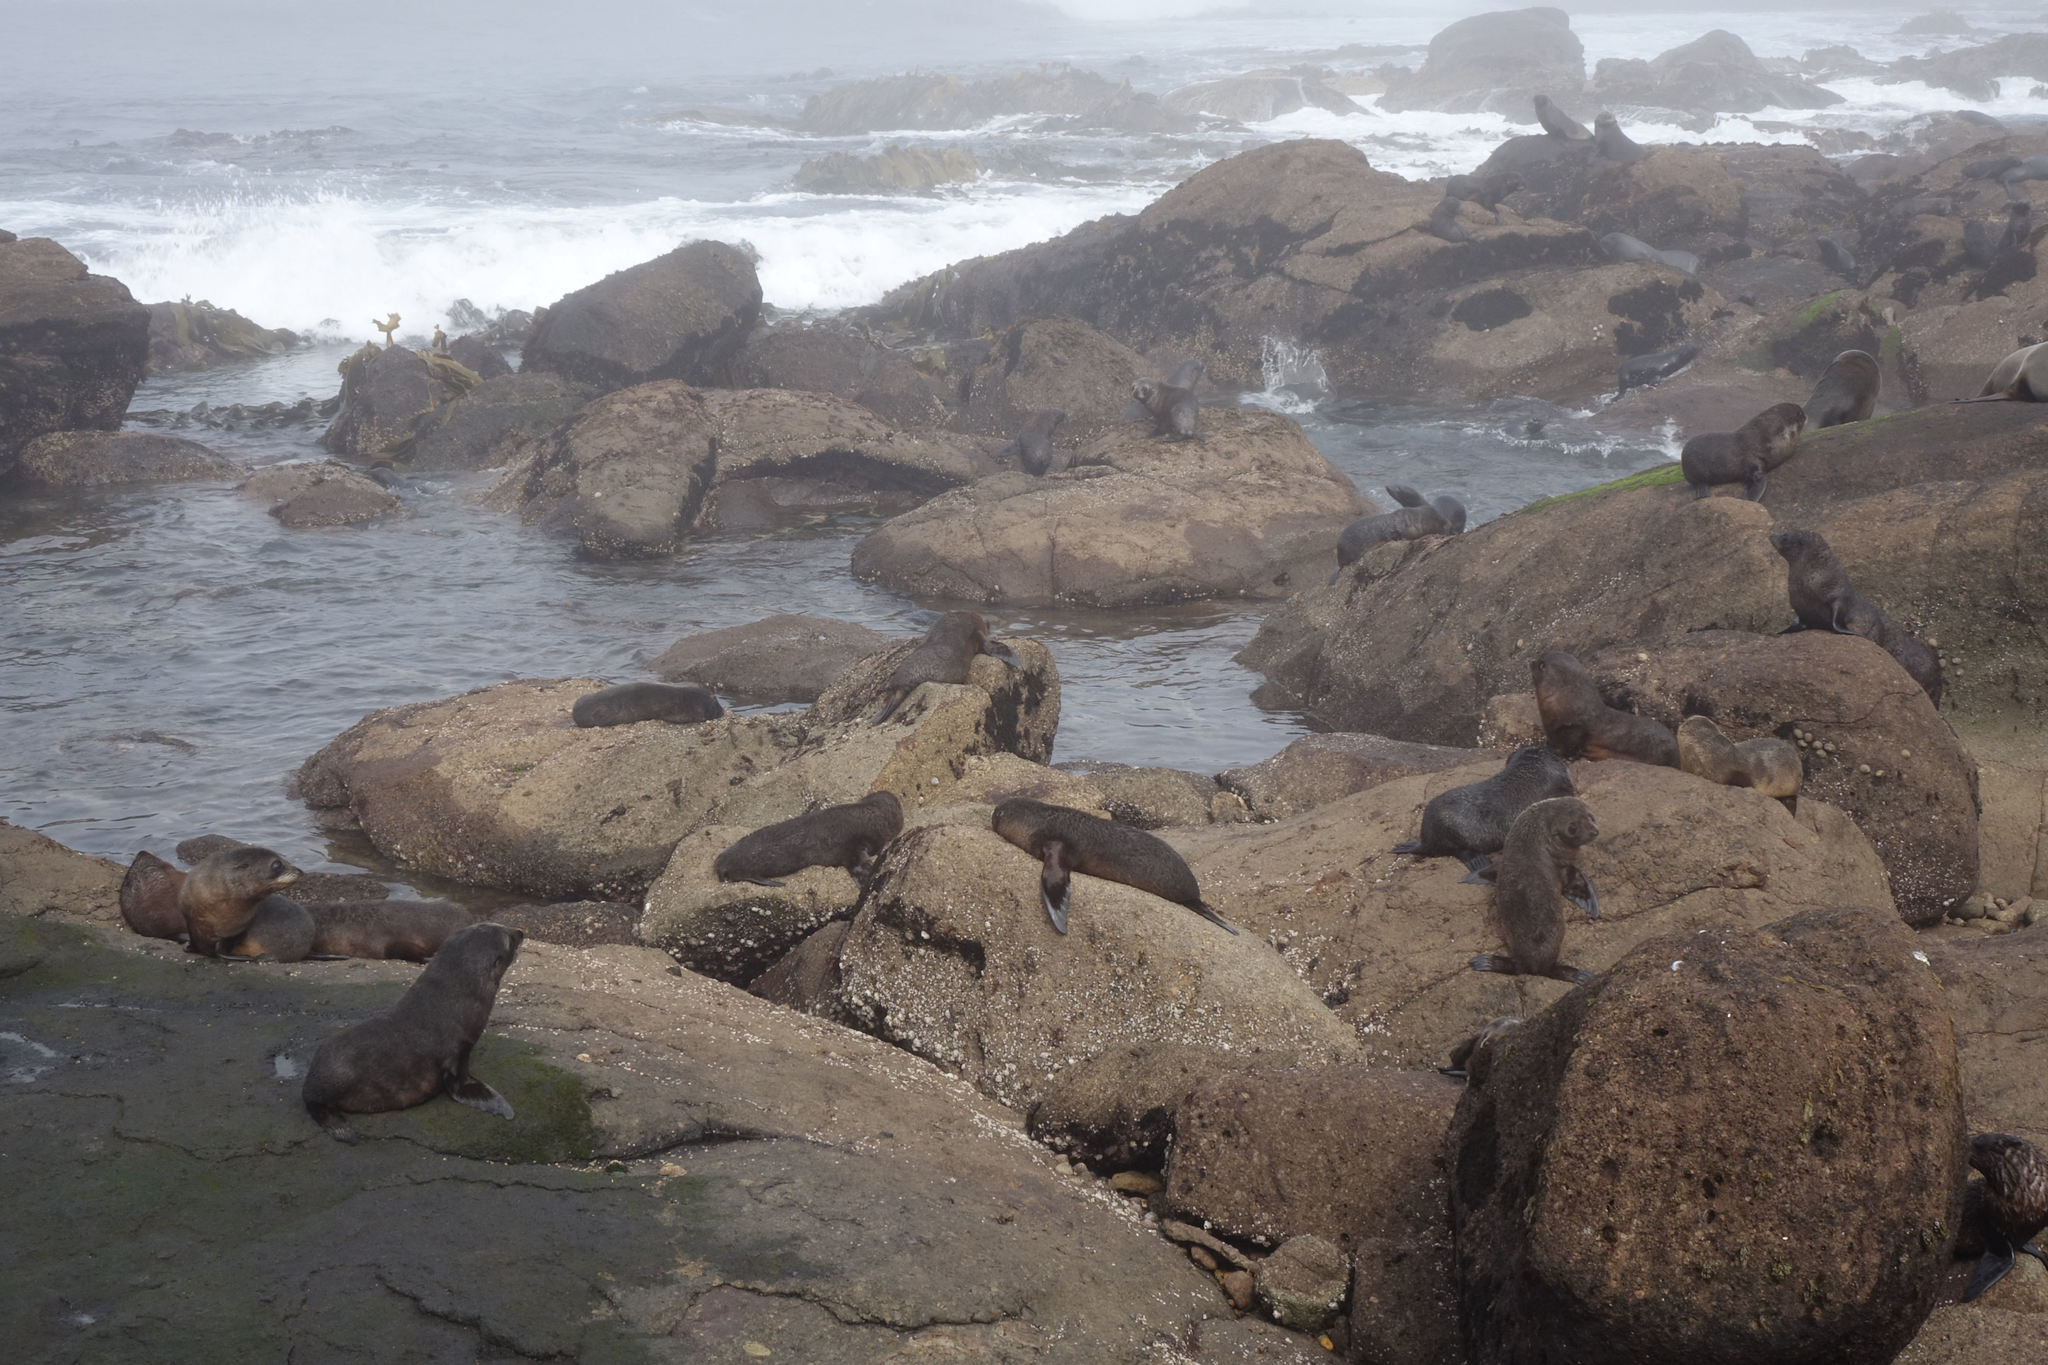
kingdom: Animalia
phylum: Chordata
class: Mammalia
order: Carnivora
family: Otariidae
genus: Arctocephalus
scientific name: Arctocephalus forsteri
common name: New zealand fur seal
